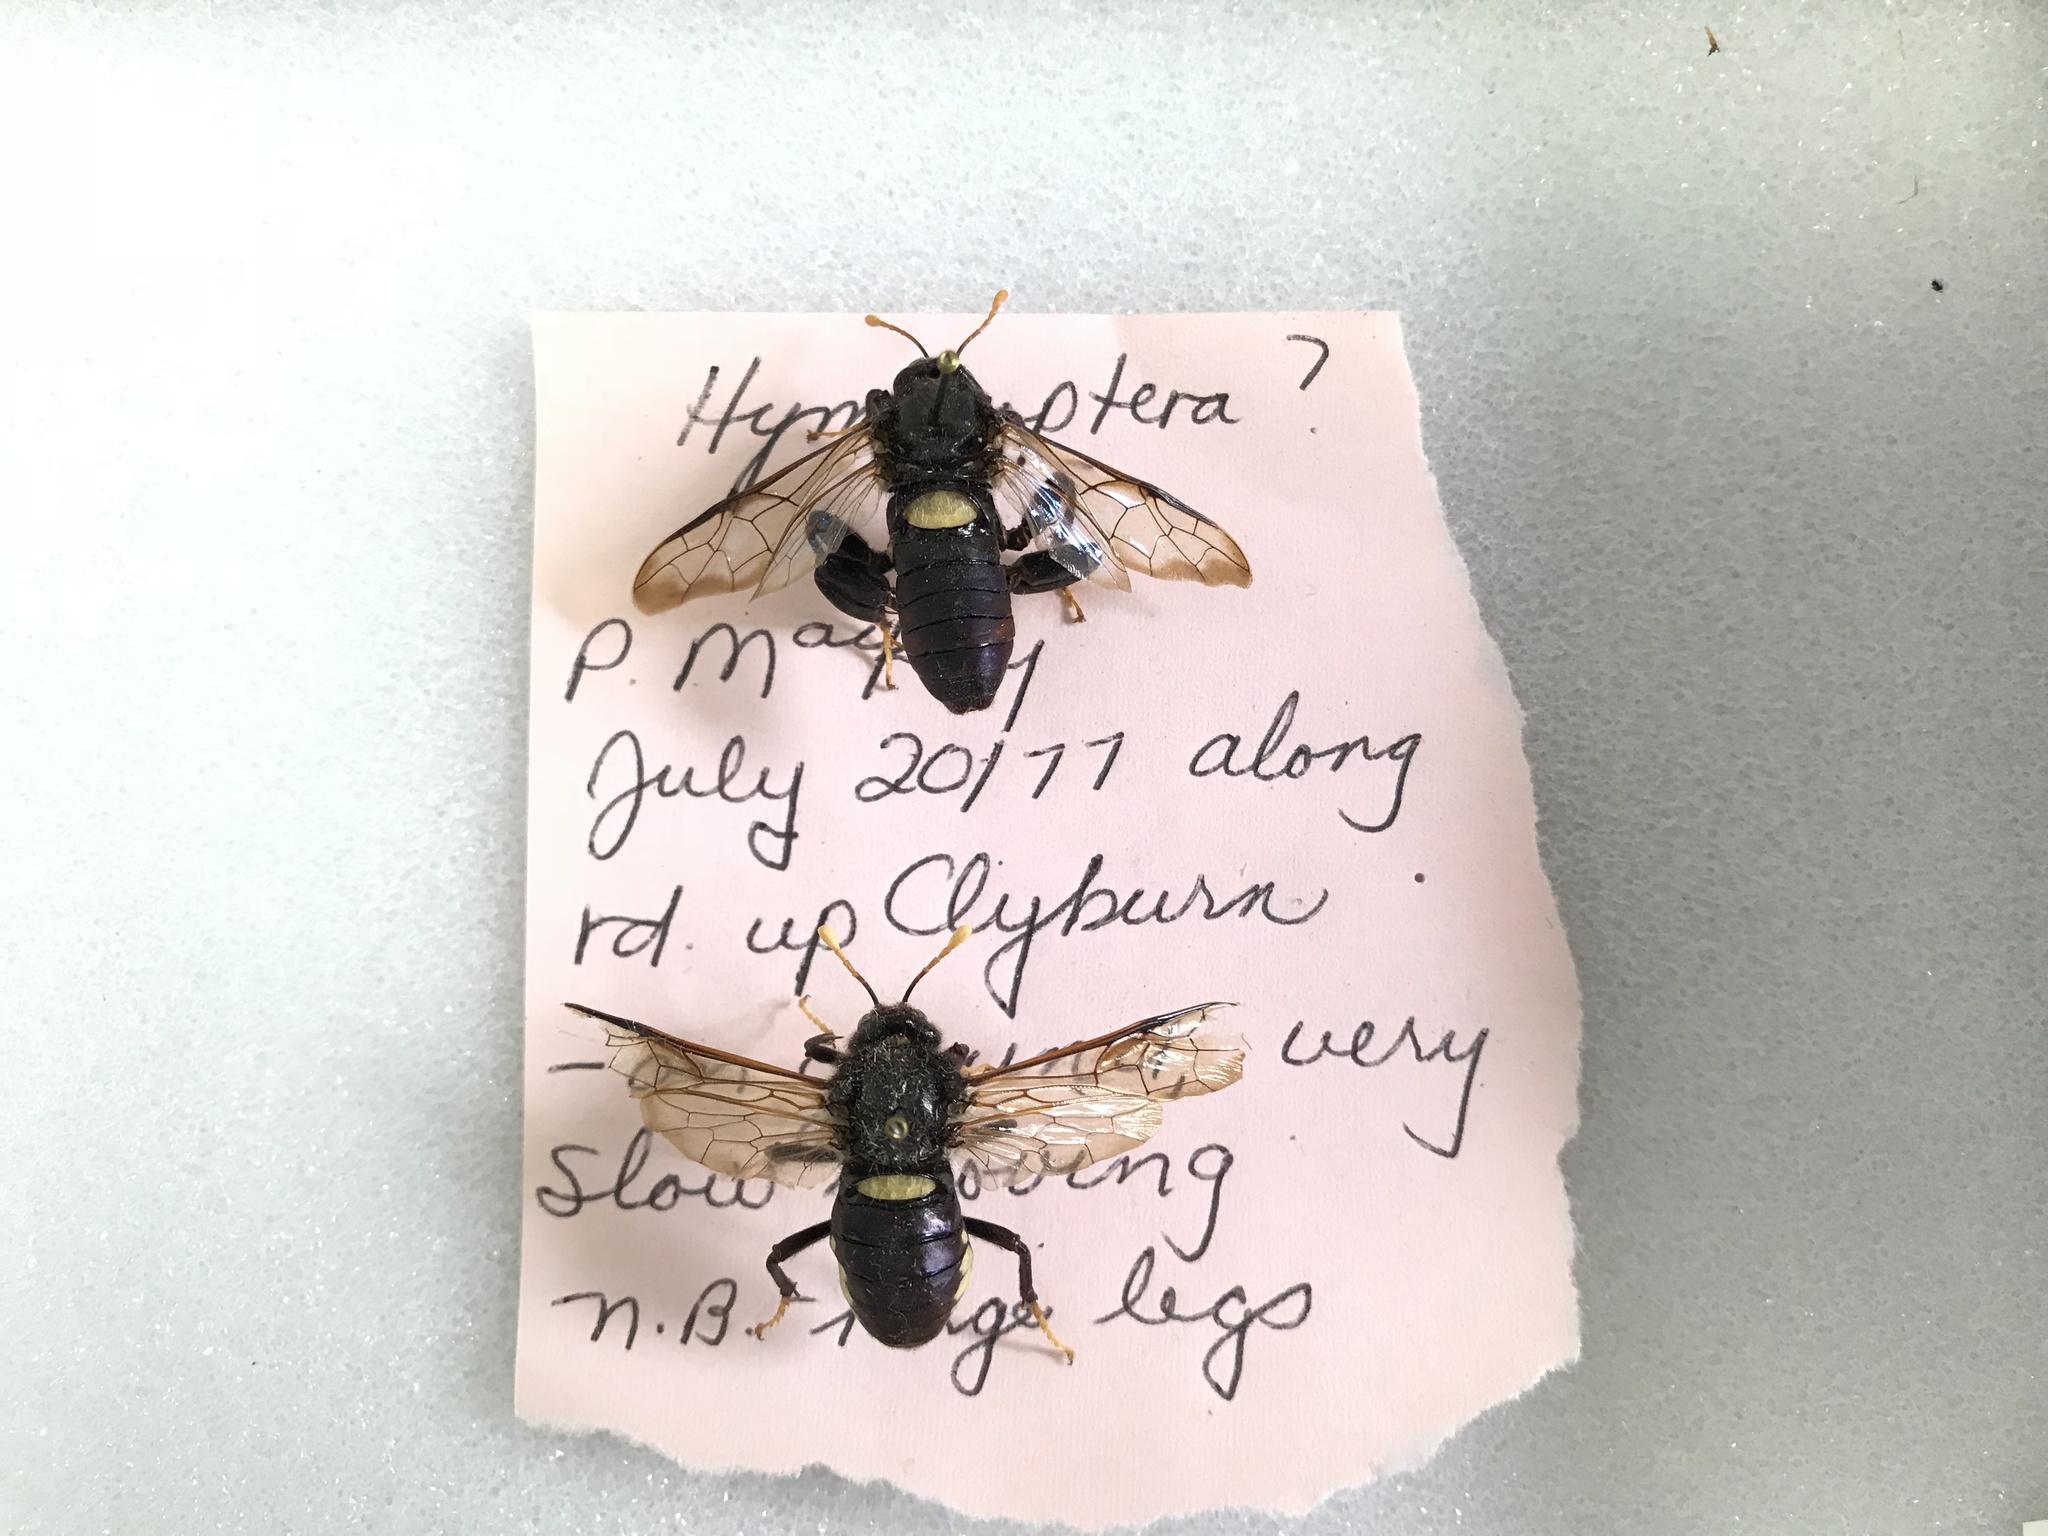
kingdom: Animalia
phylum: Arthropoda
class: Insecta
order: Hymenoptera
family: Cimbicidae
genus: Cimbex
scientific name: Cimbex americana
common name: Elm sawfly
